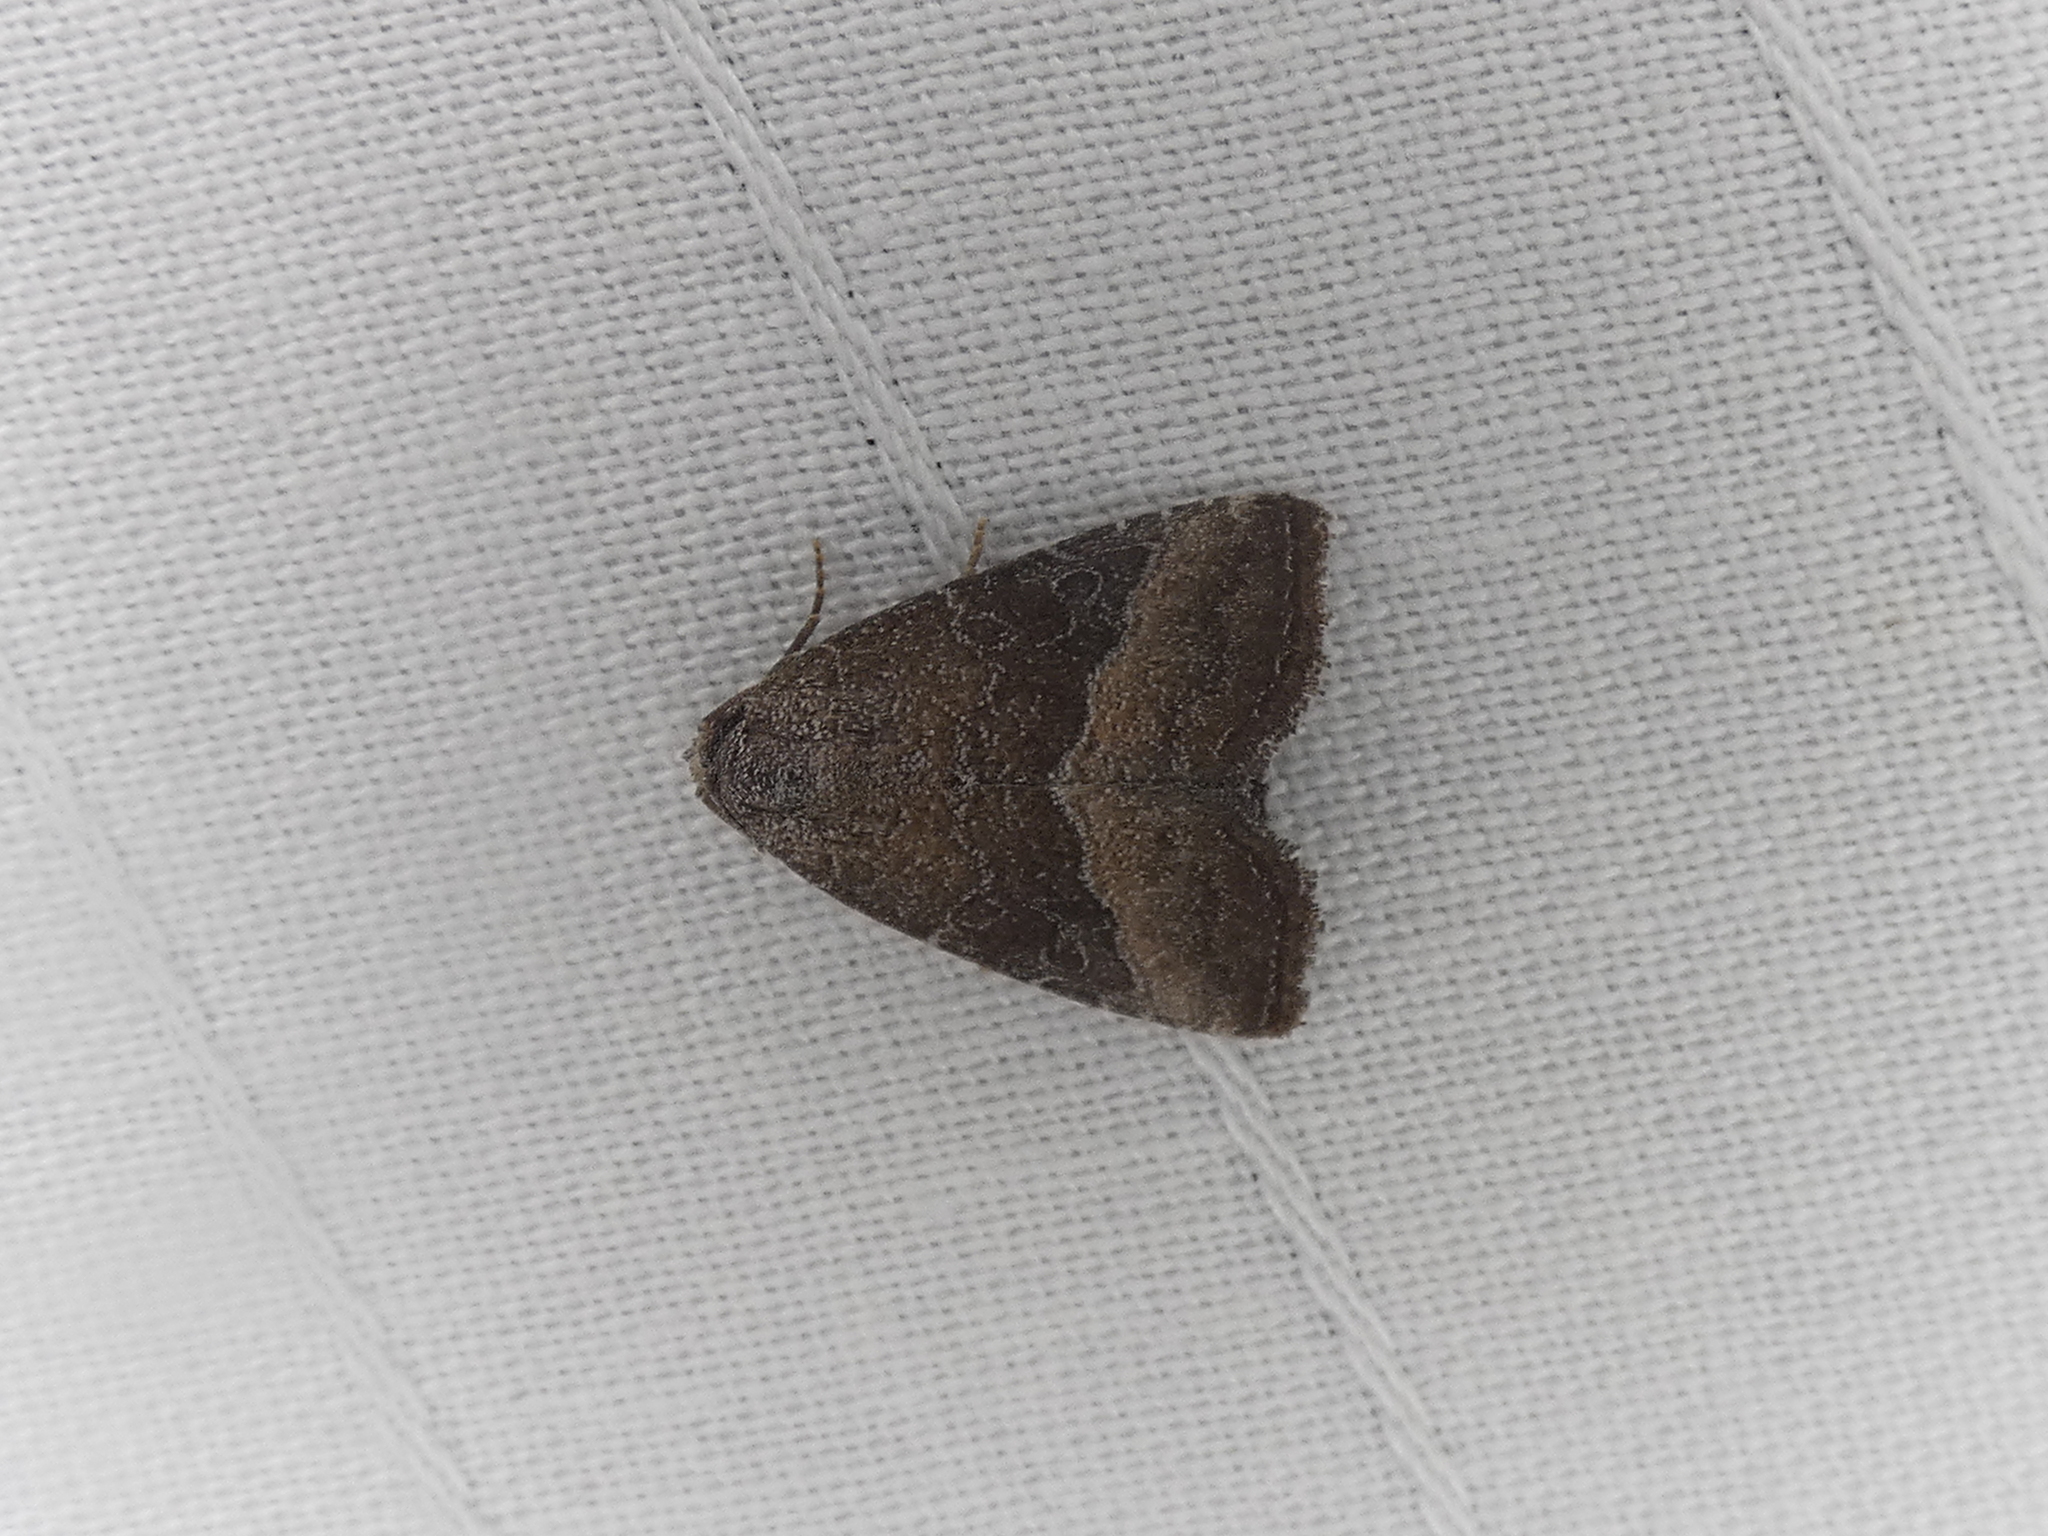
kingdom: Animalia
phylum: Arthropoda
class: Insecta
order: Lepidoptera
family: Noctuidae
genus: Ogdoconta
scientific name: Ogdoconta cinereola
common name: Common pinkband
